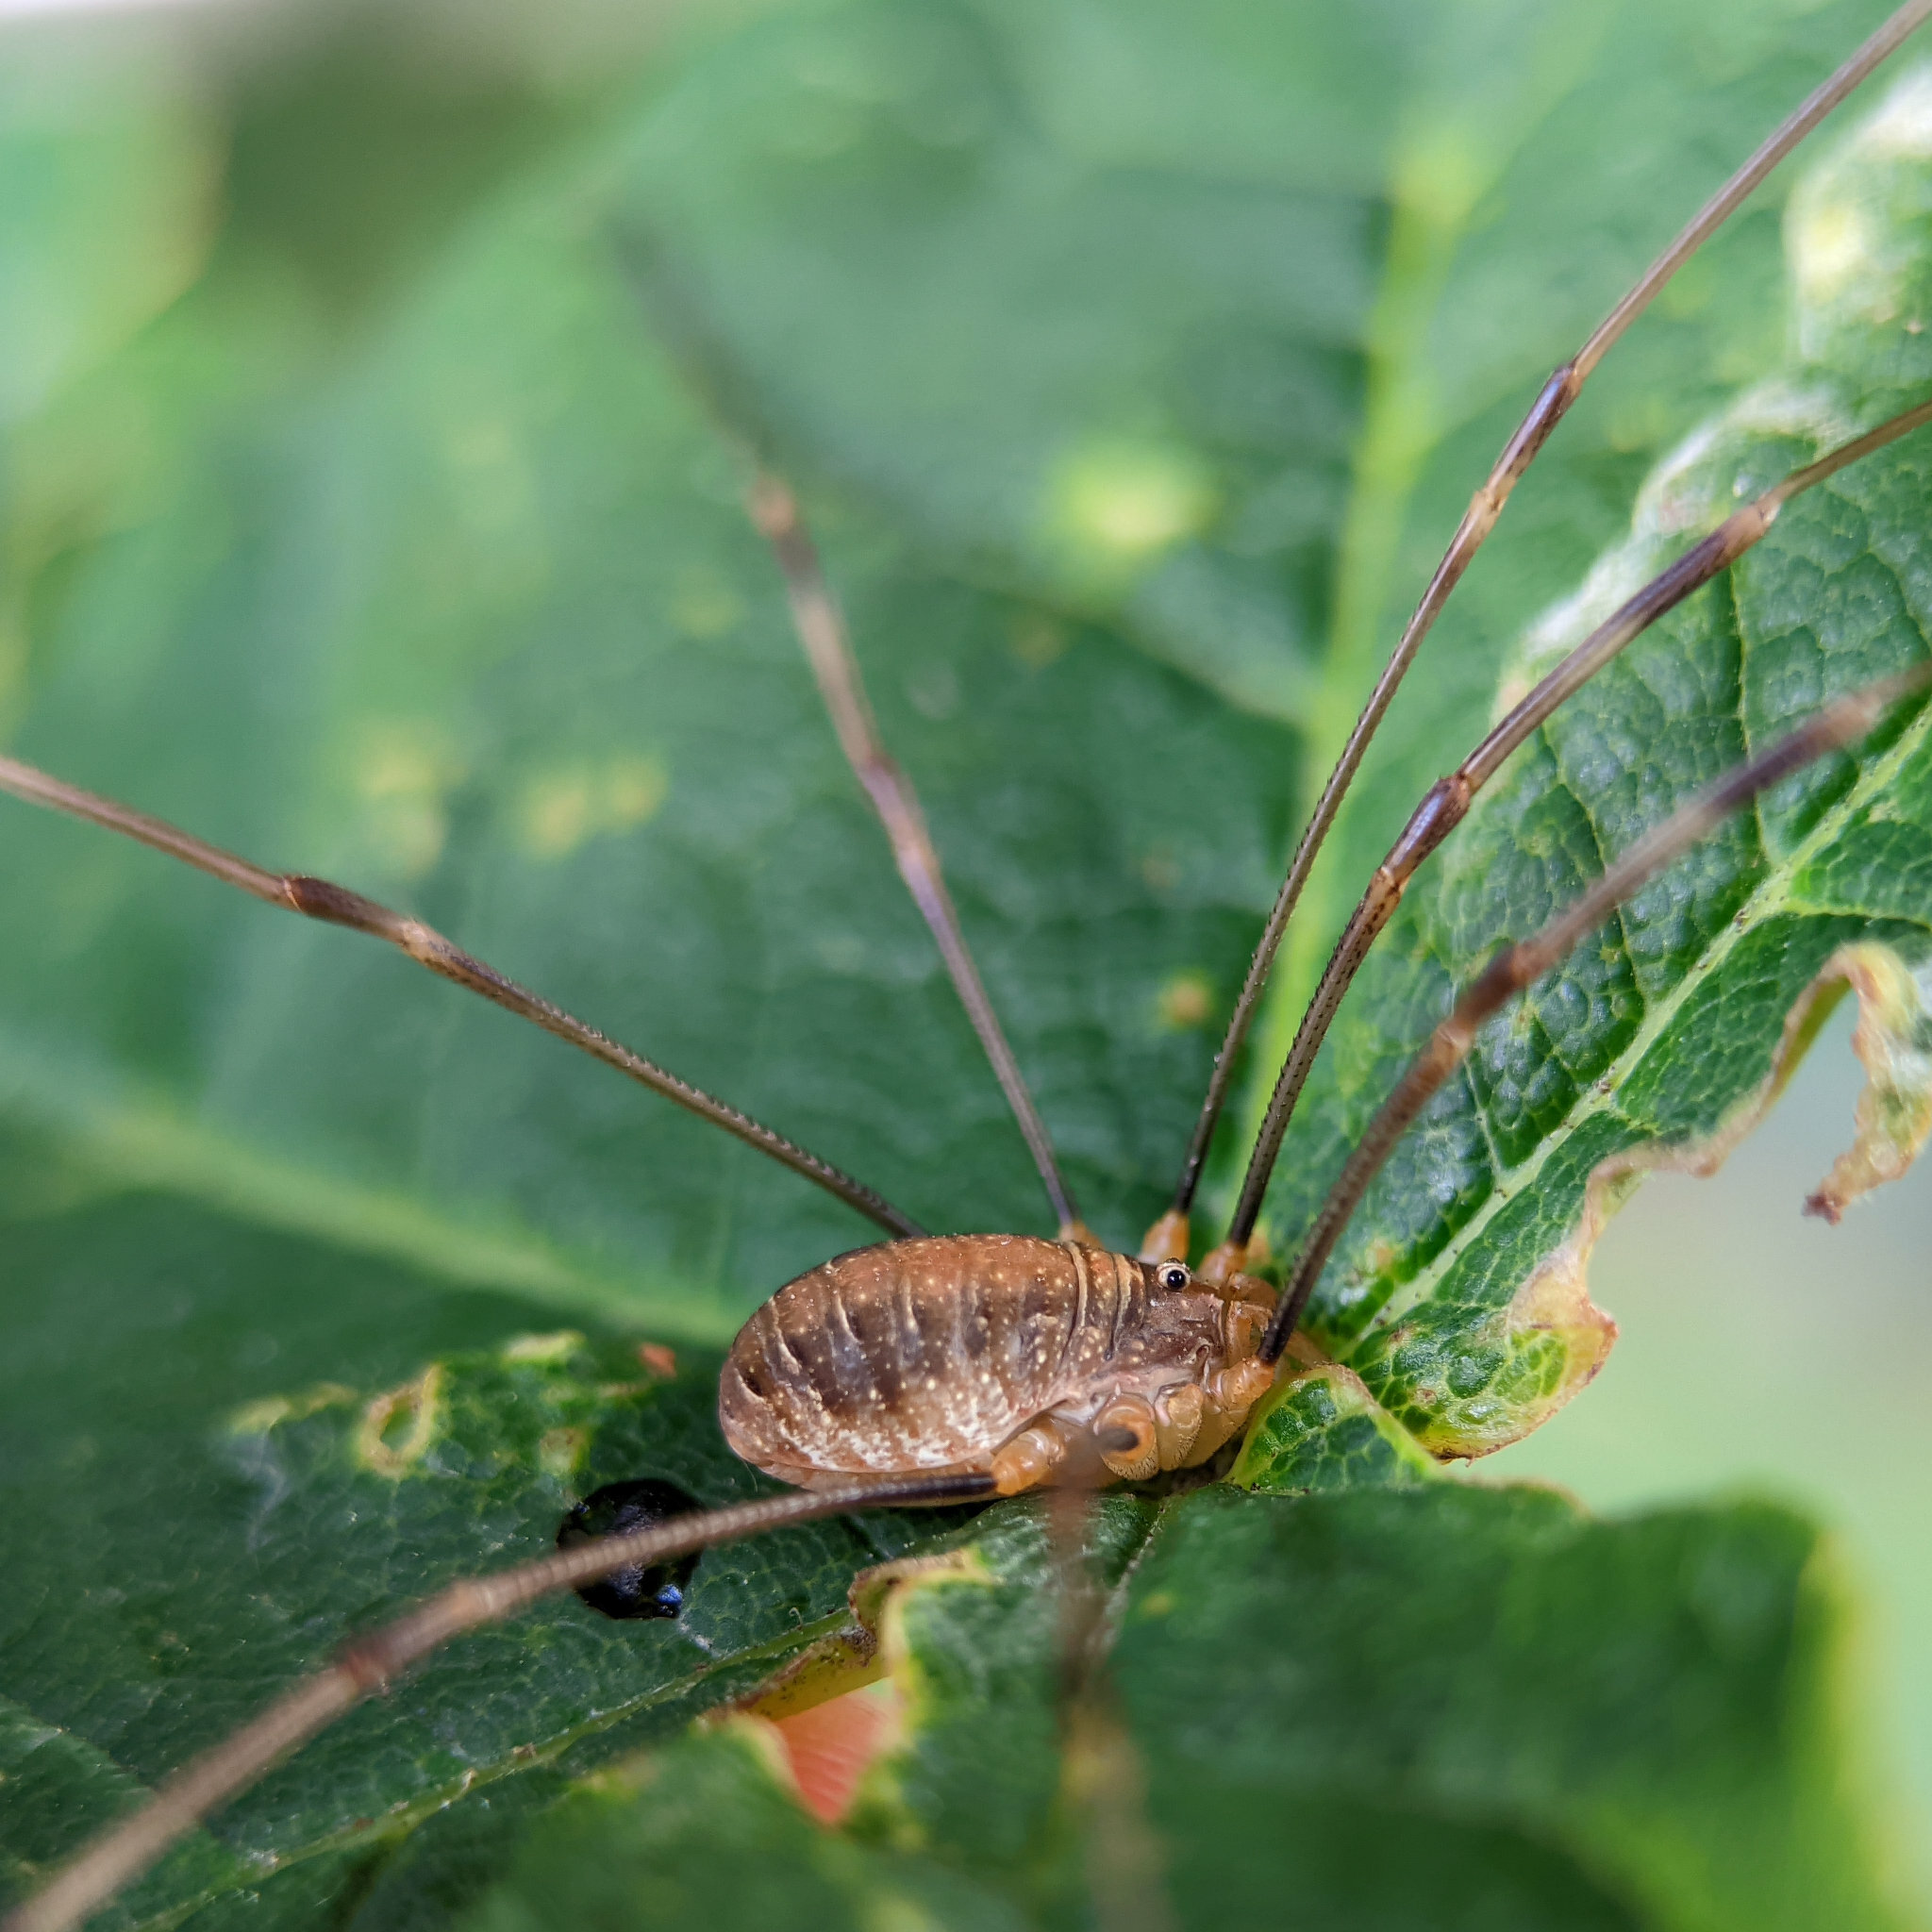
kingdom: Animalia
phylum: Arthropoda
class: Arachnida
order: Opiliones
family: Phalangiidae
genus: Opilio
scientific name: Opilio canestrinii
